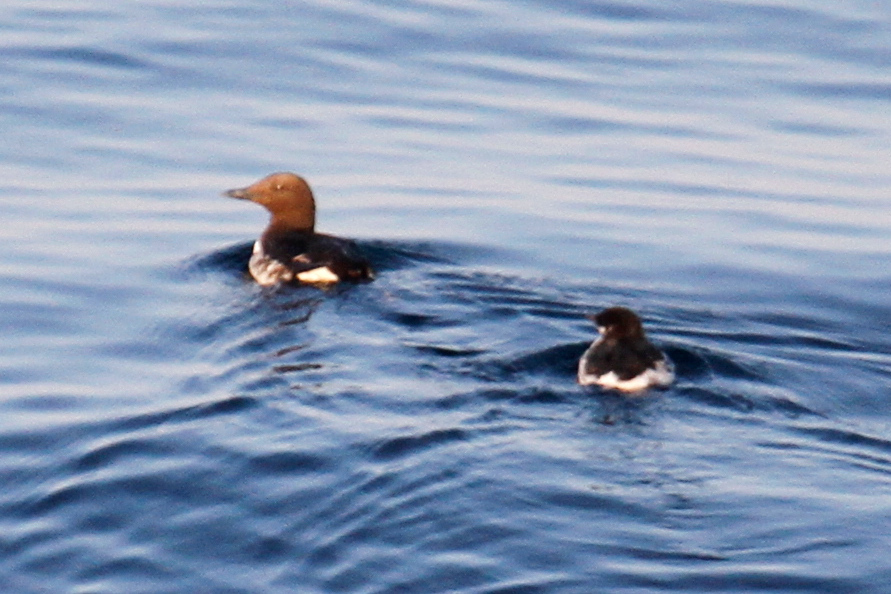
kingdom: Animalia
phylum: Chordata
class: Aves
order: Charadriiformes
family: Alcidae
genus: Uria
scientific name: Uria aalge
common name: Common murre
